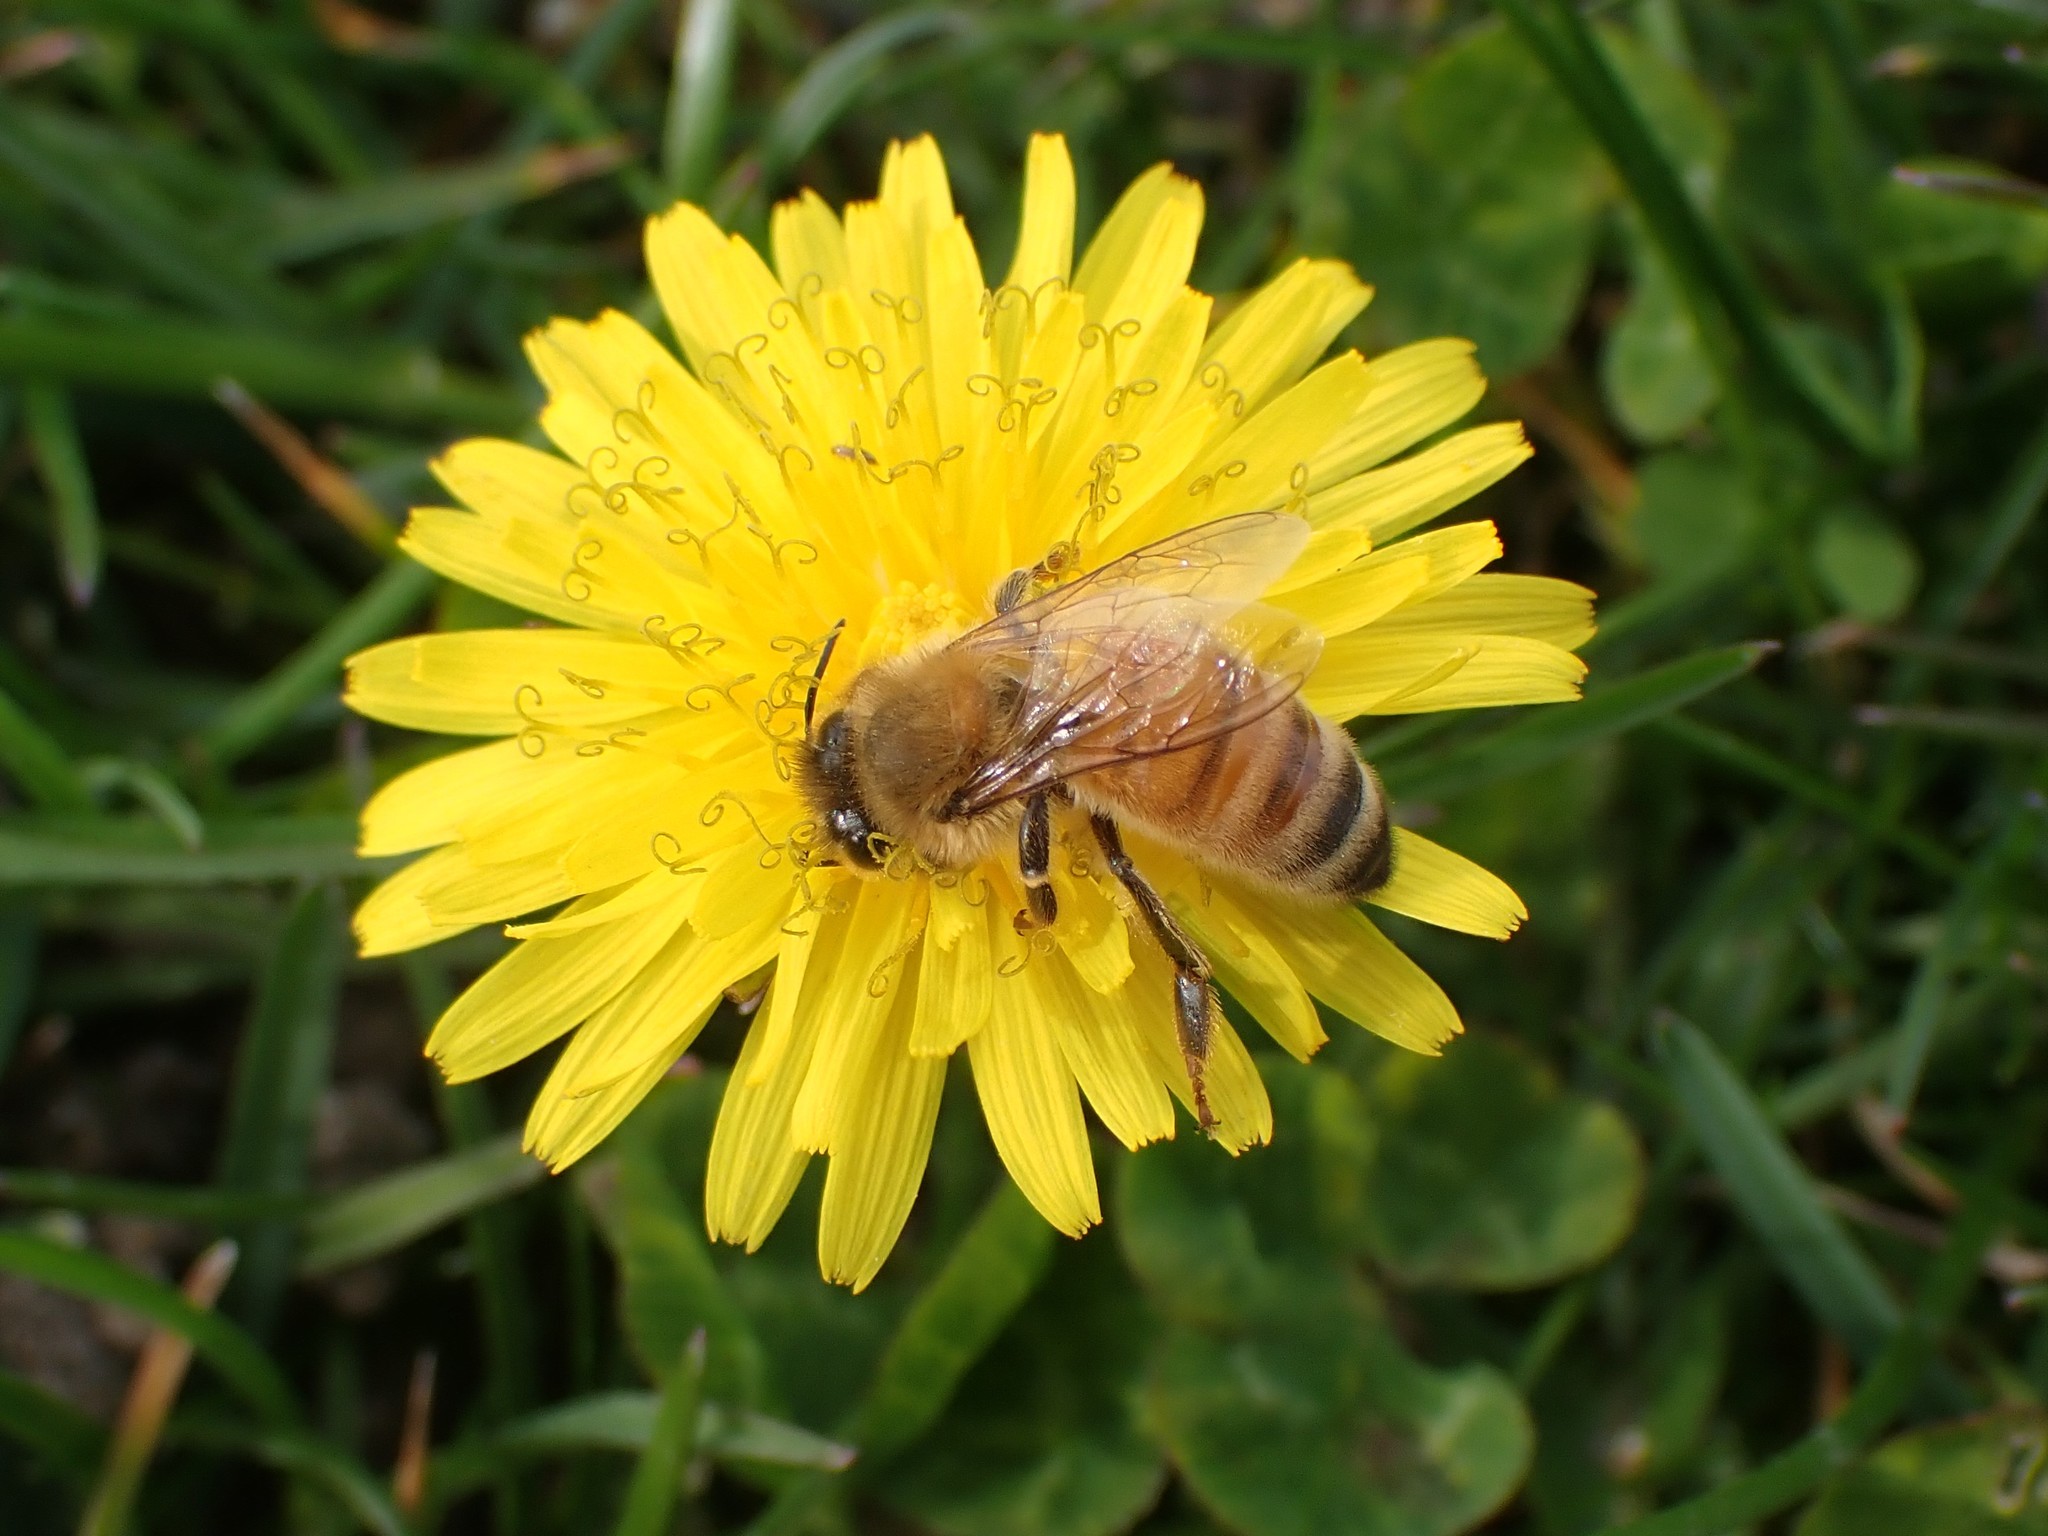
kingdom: Animalia
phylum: Arthropoda
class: Insecta
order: Hymenoptera
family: Apidae
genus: Apis
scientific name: Apis mellifera
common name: Honey bee
